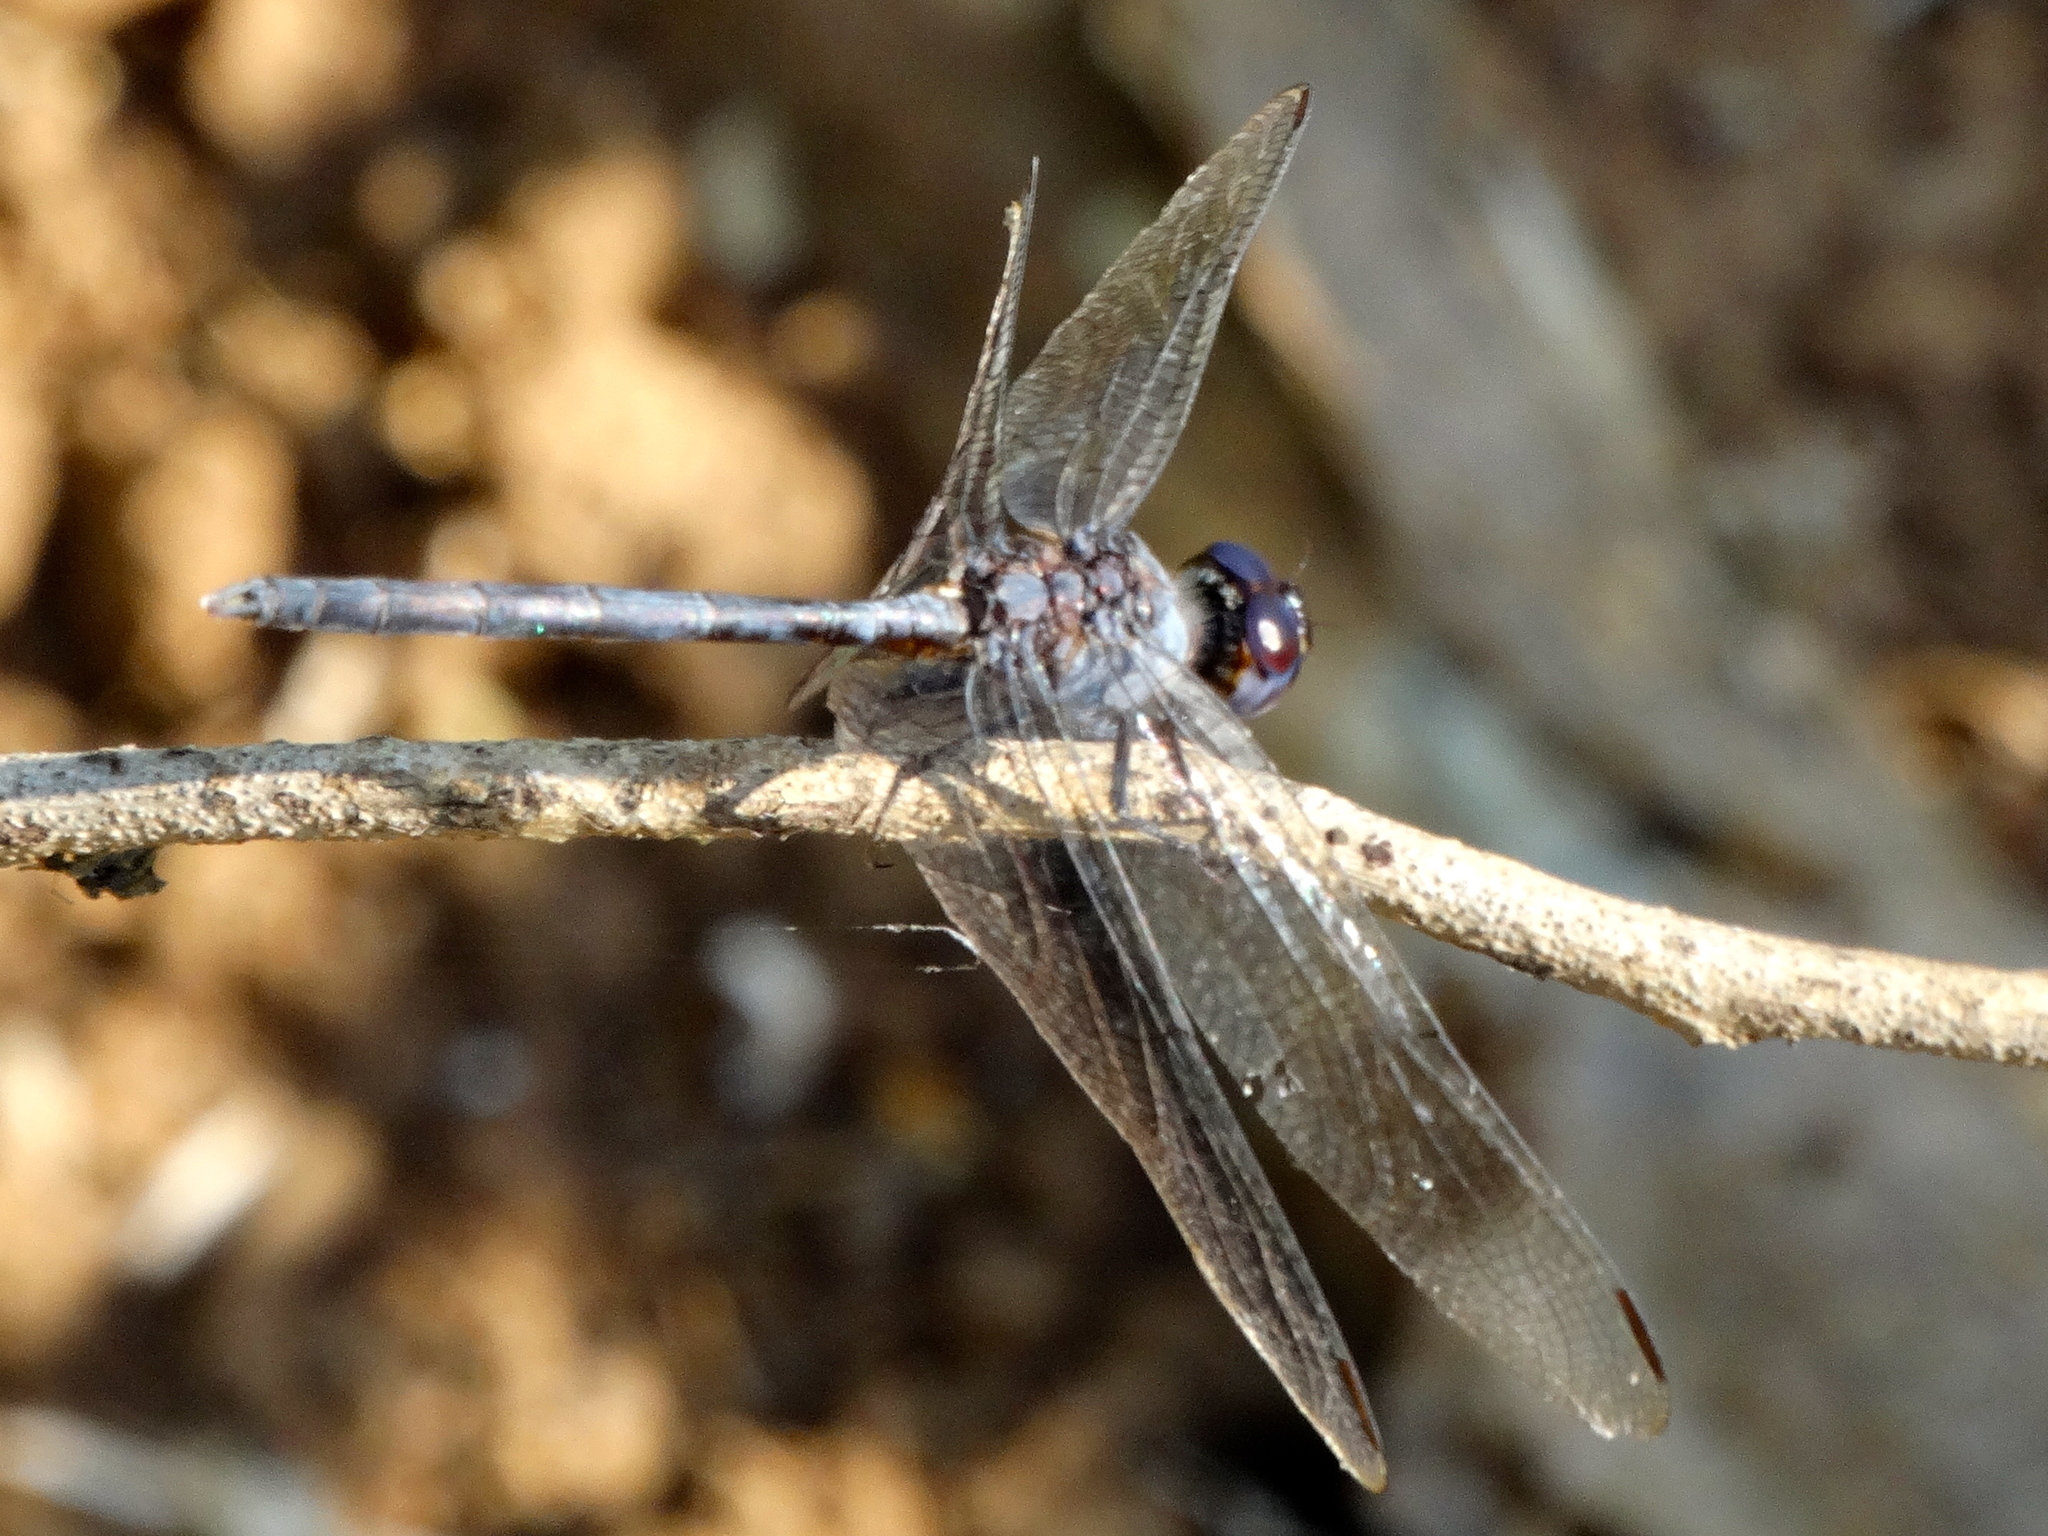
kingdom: Animalia
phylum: Arthropoda
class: Insecta
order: Odonata
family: Libellulidae
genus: Erythrodiplax
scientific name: Erythrodiplax berenice
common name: Seaside dragonlet
